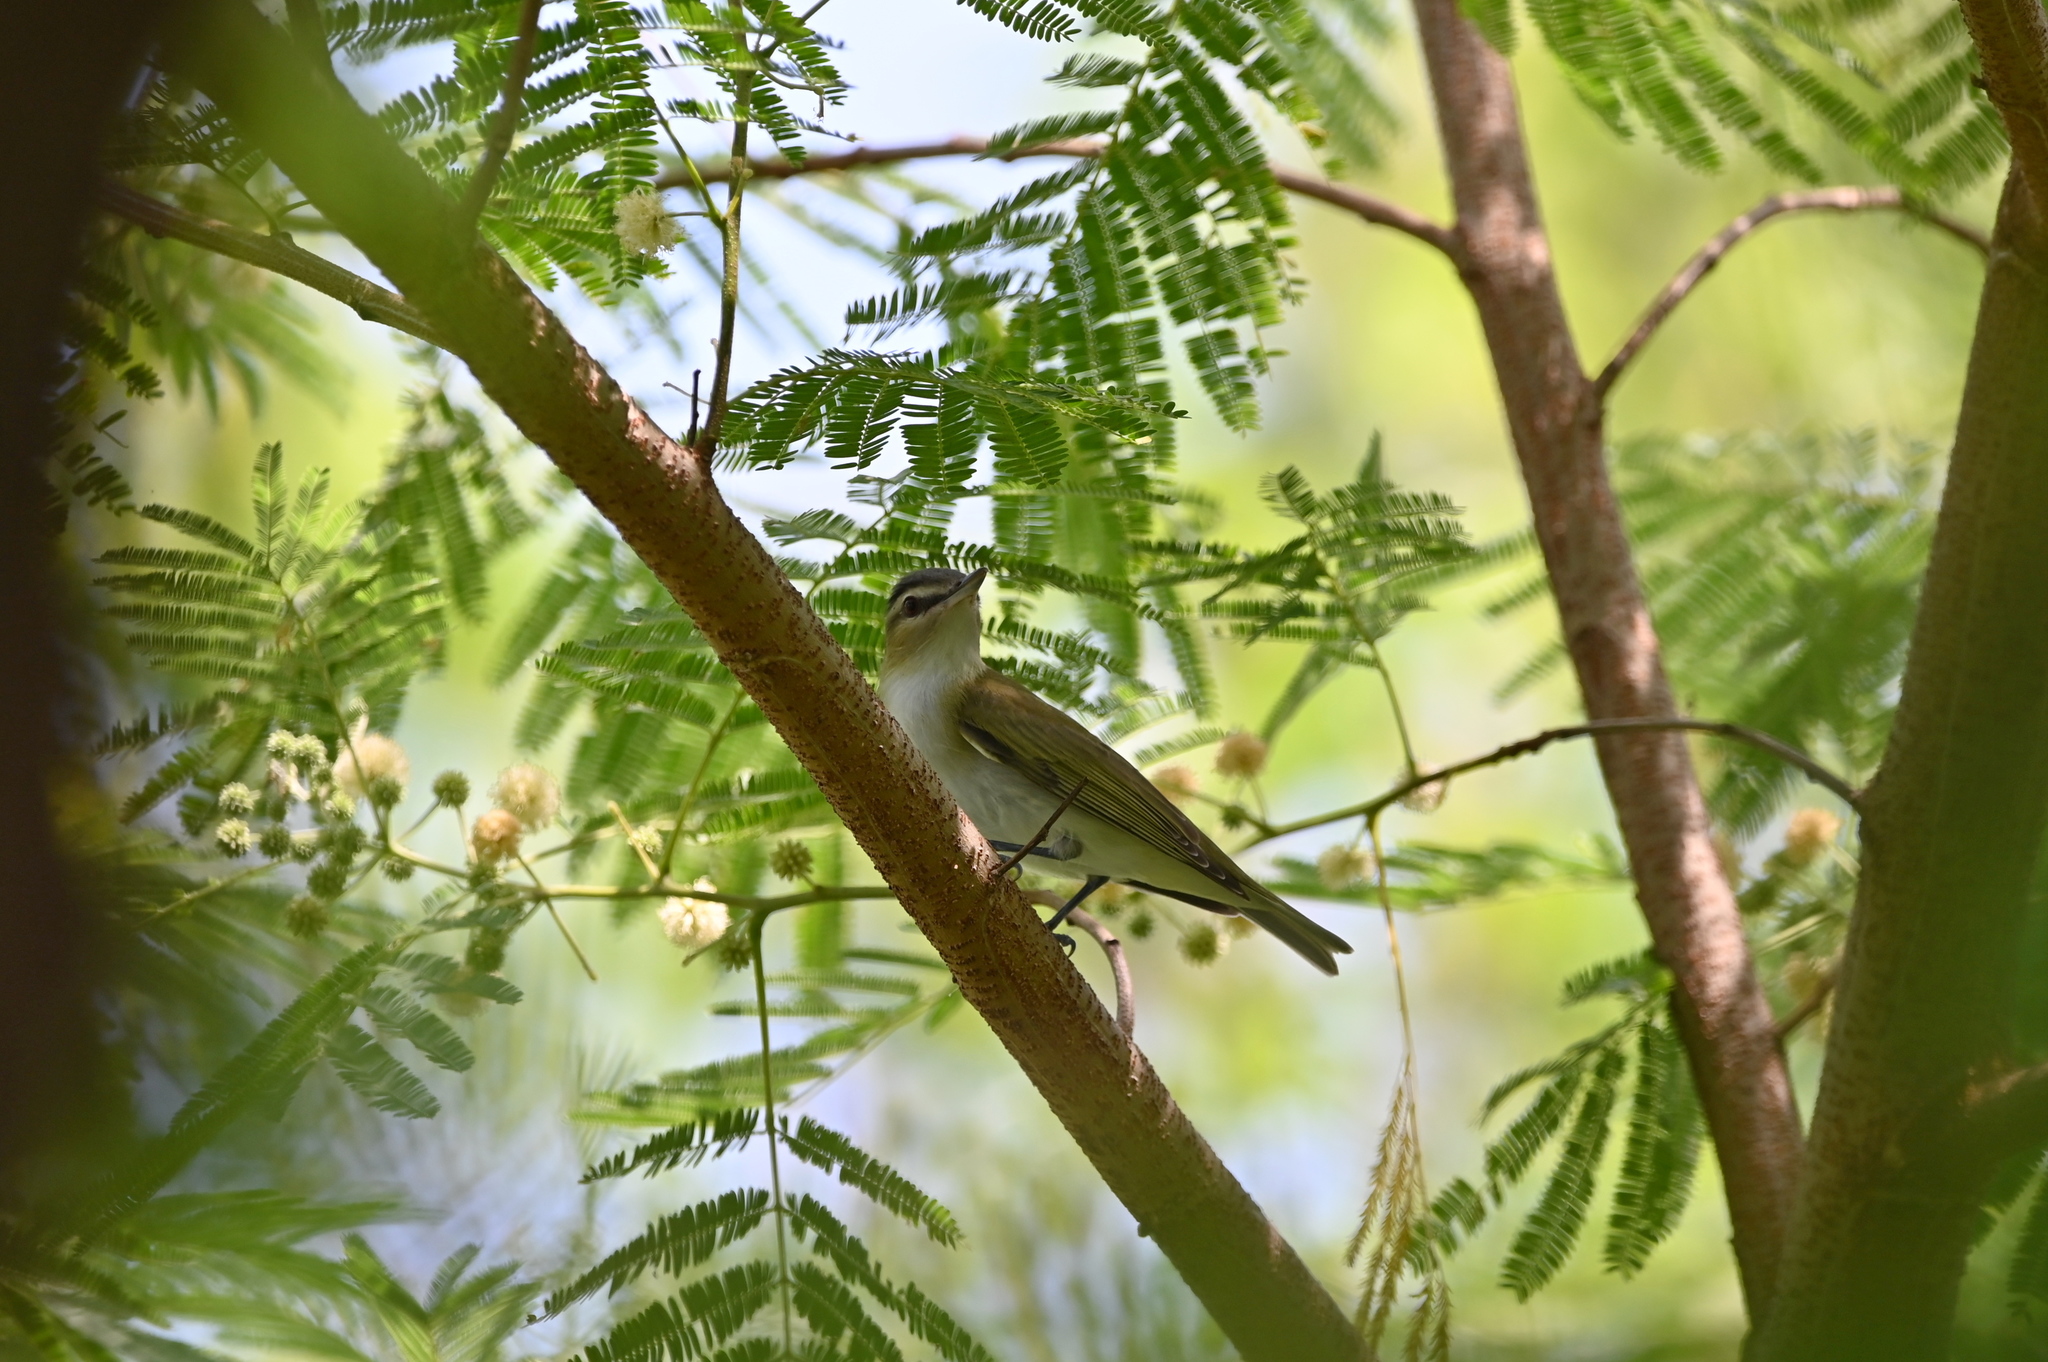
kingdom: Animalia
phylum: Chordata
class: Aves
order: Passeriformes
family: Vireonidae
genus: Vireo
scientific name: Vireo olivaceus
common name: Red-eyed vireo
